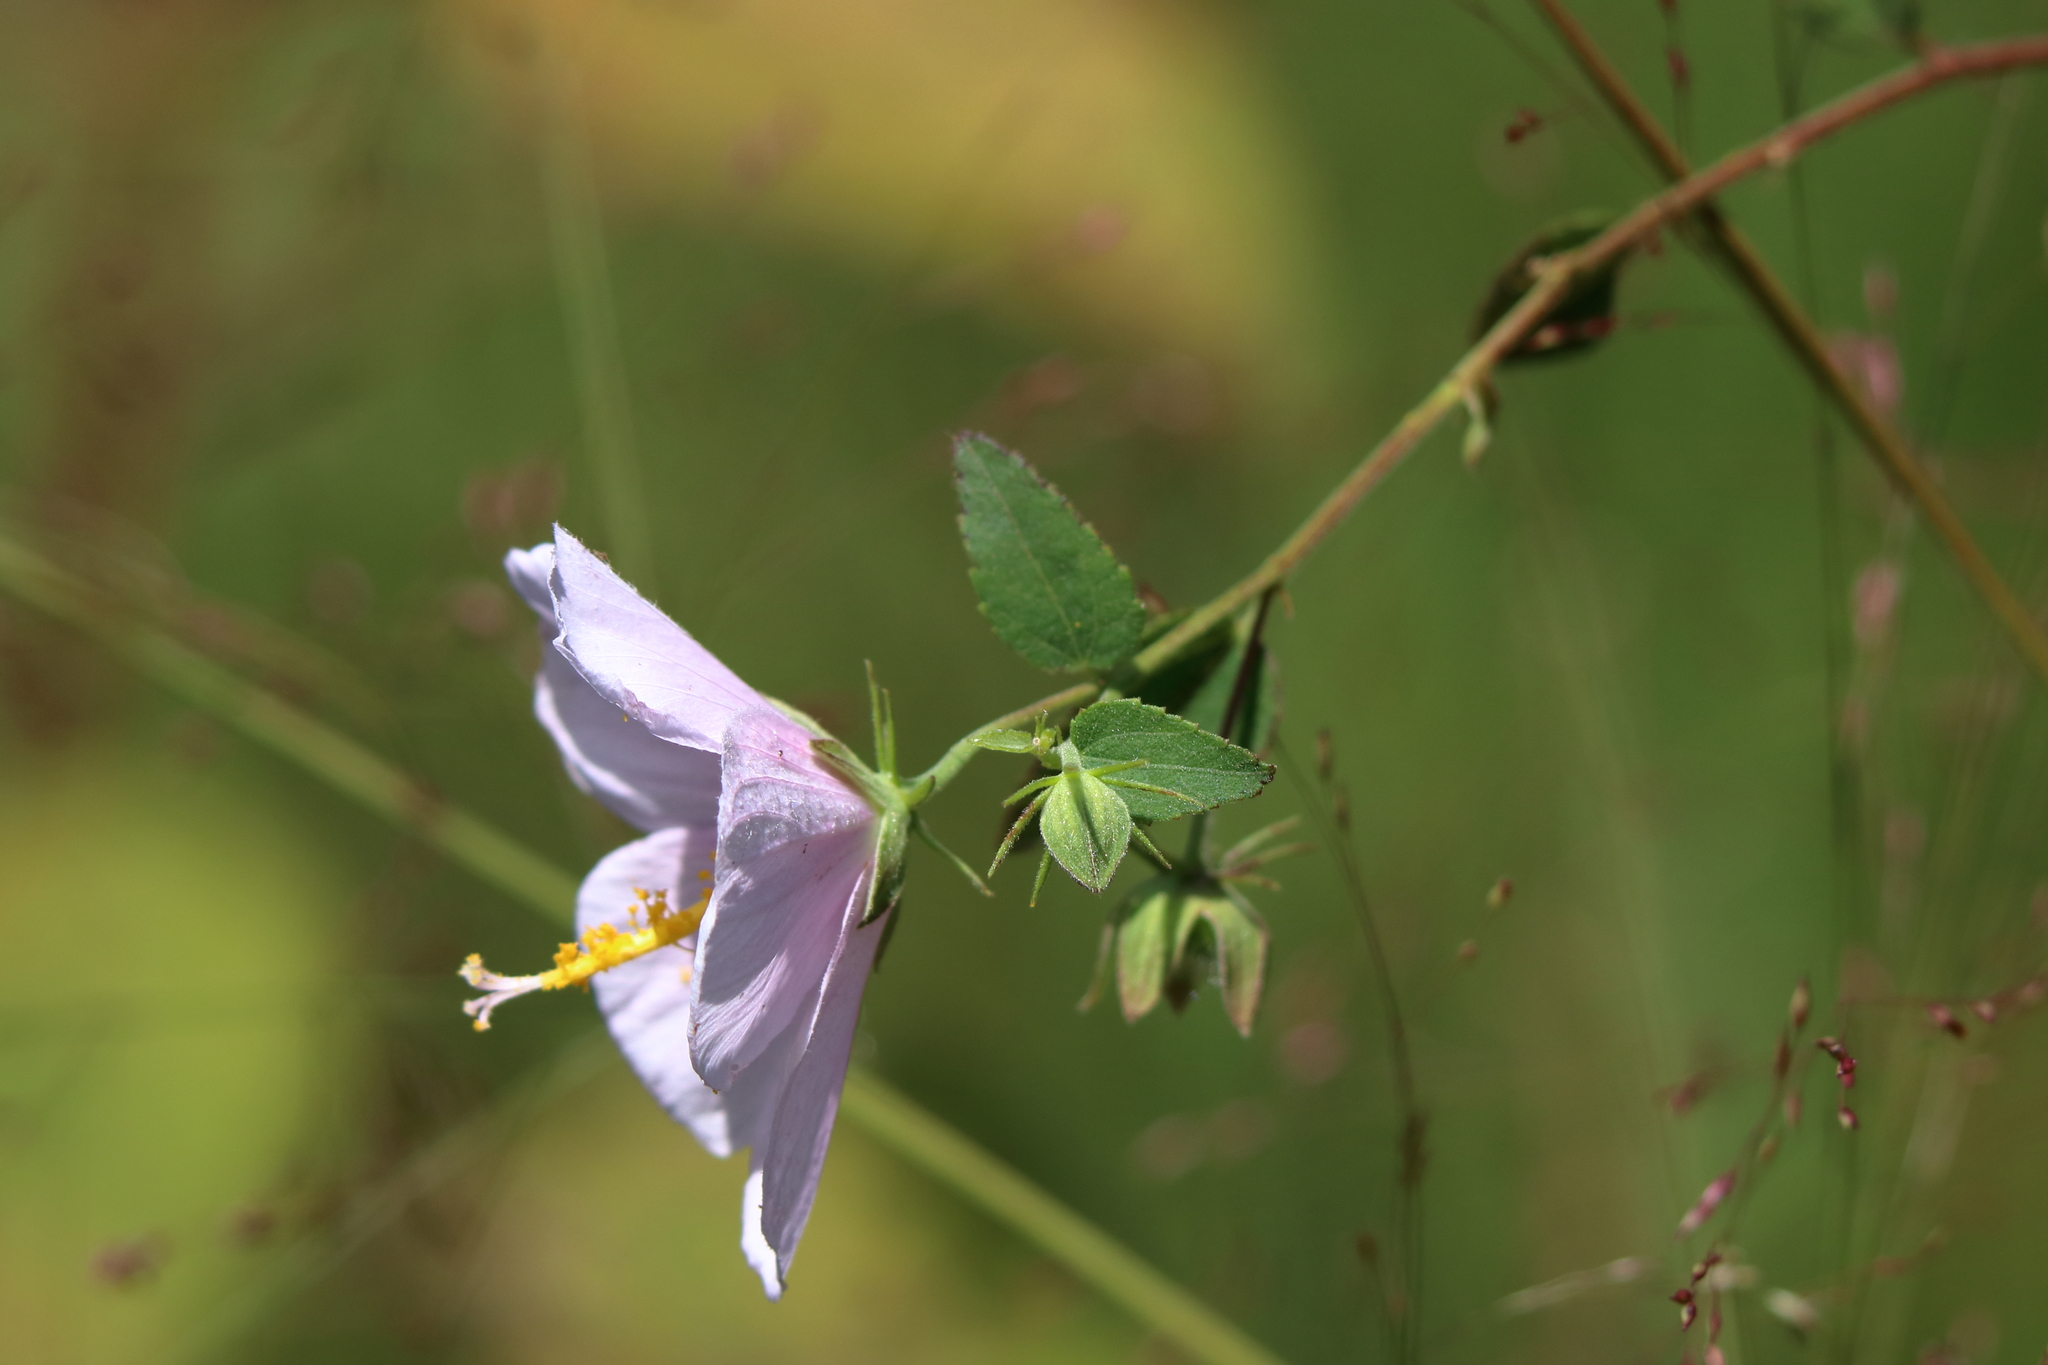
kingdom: Plantae
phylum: Tracheophyta
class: Magnoliopsida
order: Malvales
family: Malvaceae
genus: Kosteletzkya
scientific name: Kosteletzkya pentacarpos
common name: Virginia saltmarsh mallow
